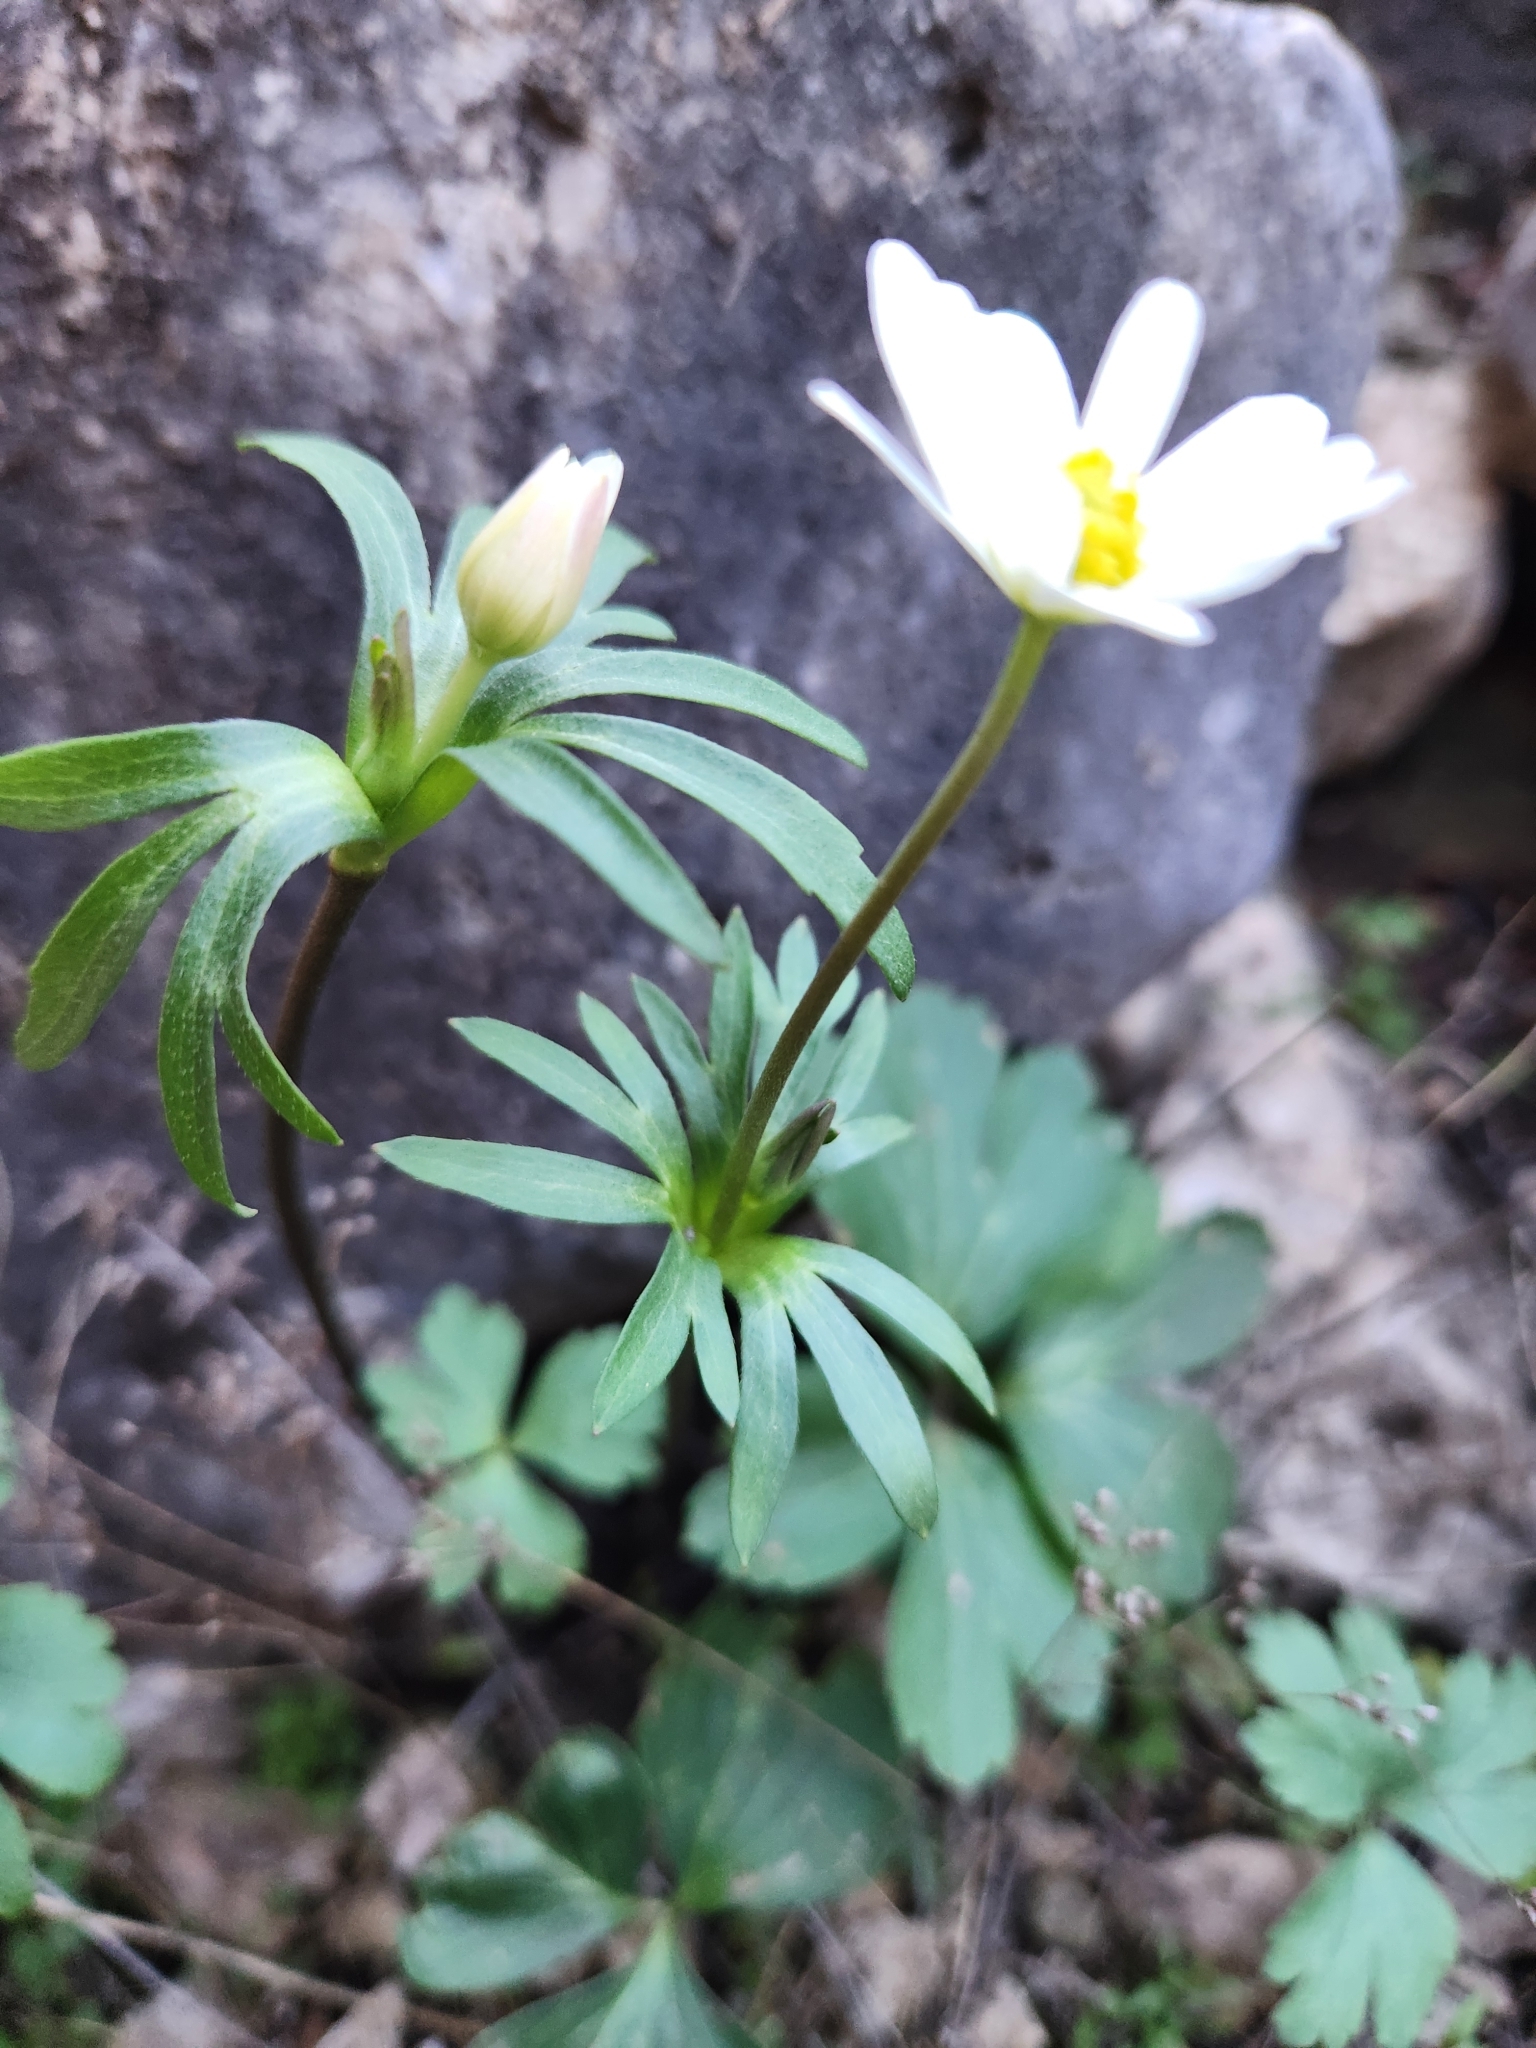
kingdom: Plantae
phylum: Tracheophyta
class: Magnoliopsida
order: Ranunculales
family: Ranunculaceae
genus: Anemone
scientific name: Anemone edwardsiana
